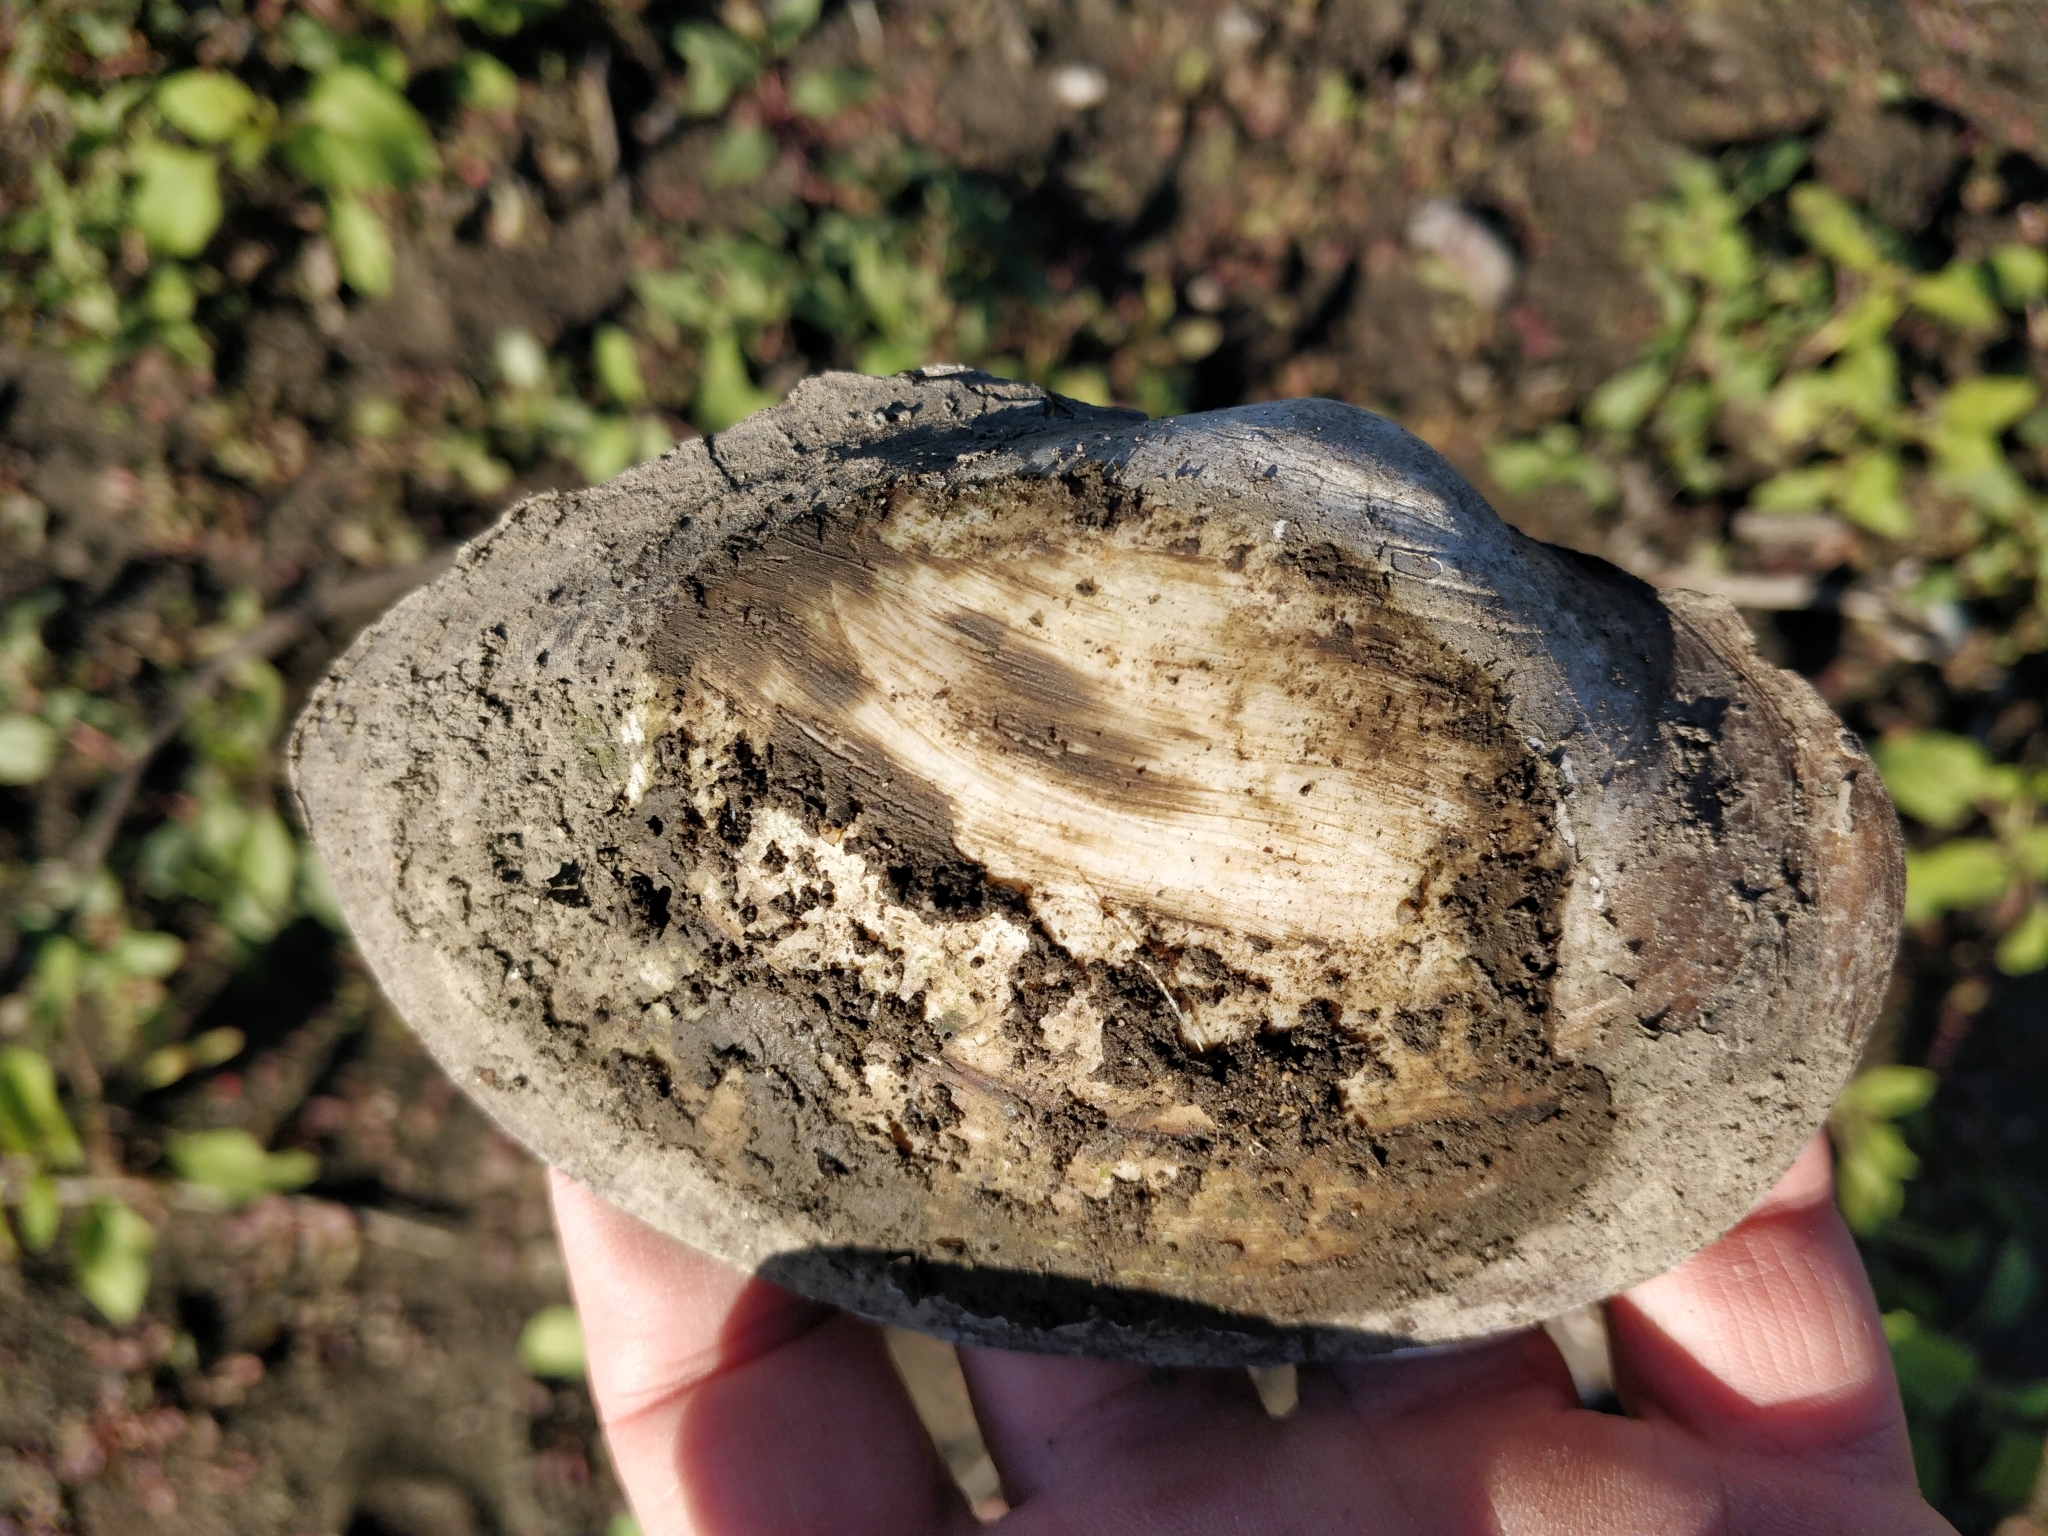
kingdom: Animalia
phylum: Mollusca
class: Bivalvia
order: Unionida
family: Unionidae
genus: Pyganodon
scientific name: Pyganodon grandis
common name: Giant floater
